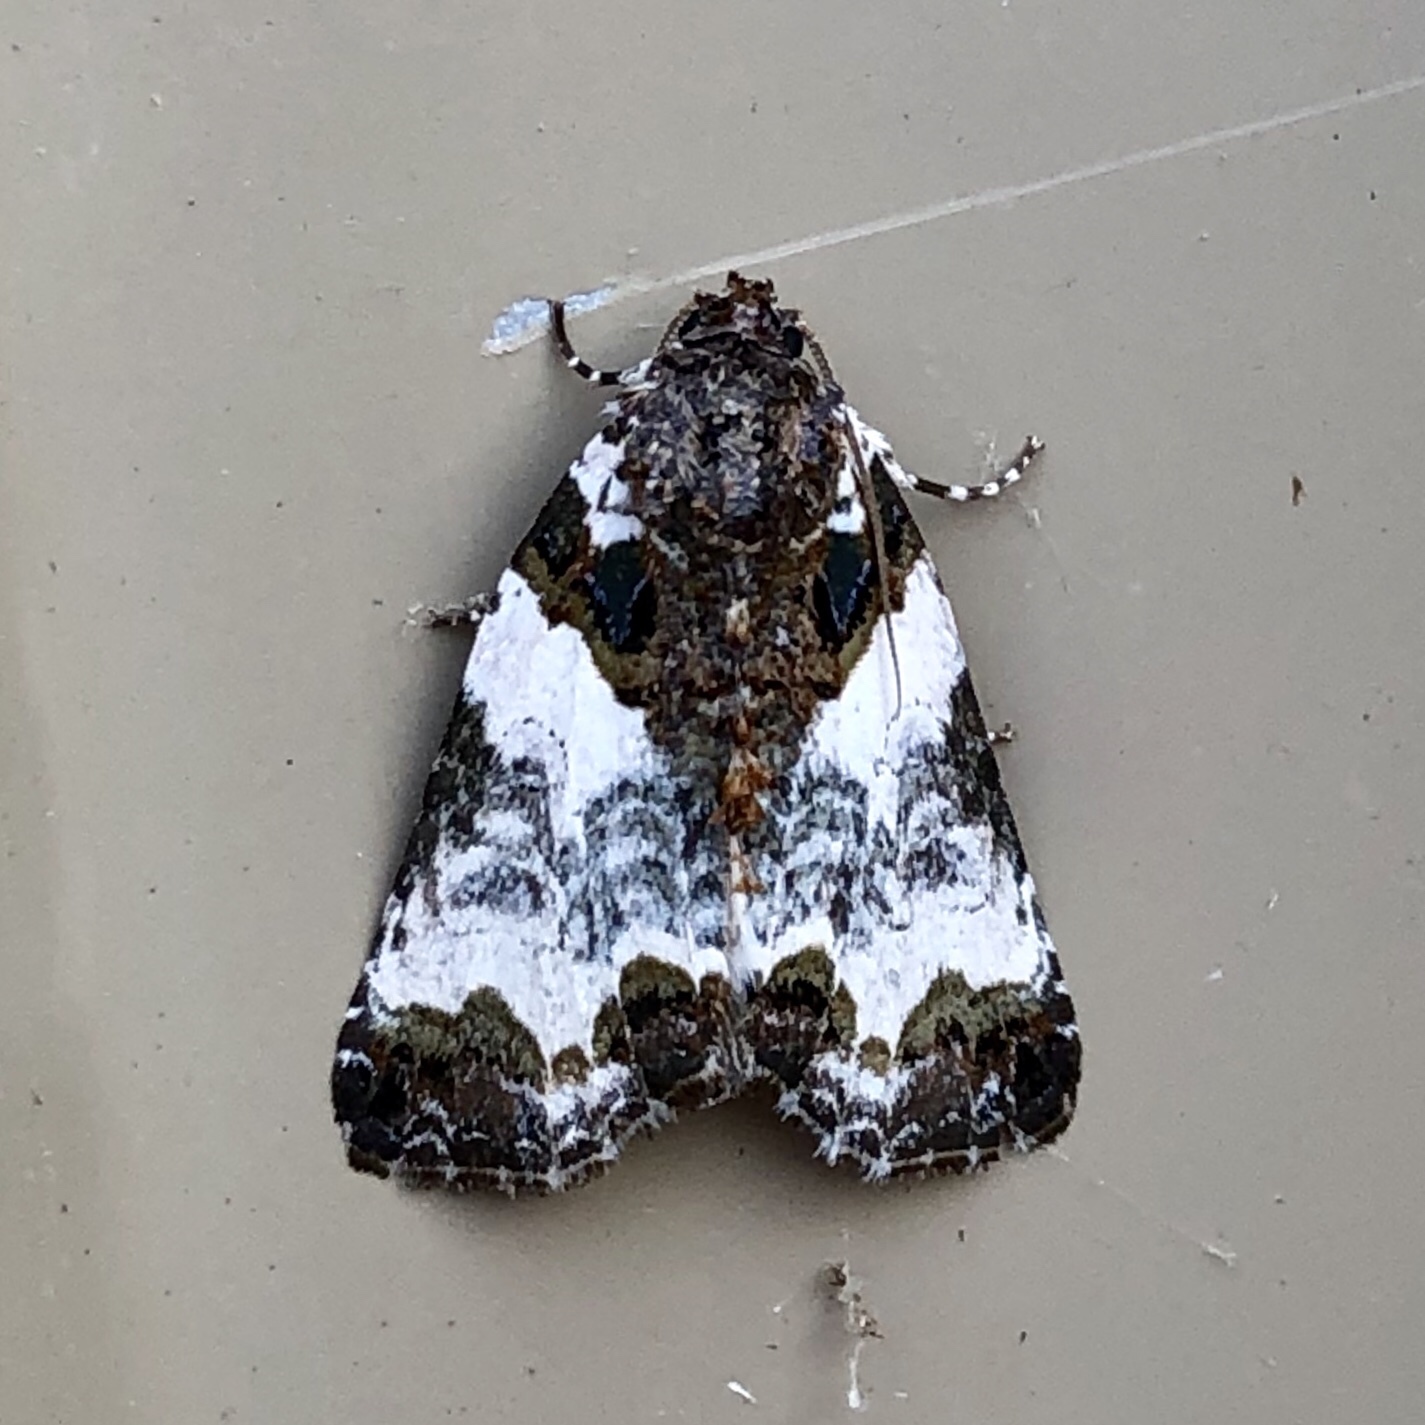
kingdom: Animalia
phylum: Arthropoda
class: Insecta
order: Lepidoptera
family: Noctuidae
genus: Cerma
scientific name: Cerma cerintha
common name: Tufted bird-dropping moth
